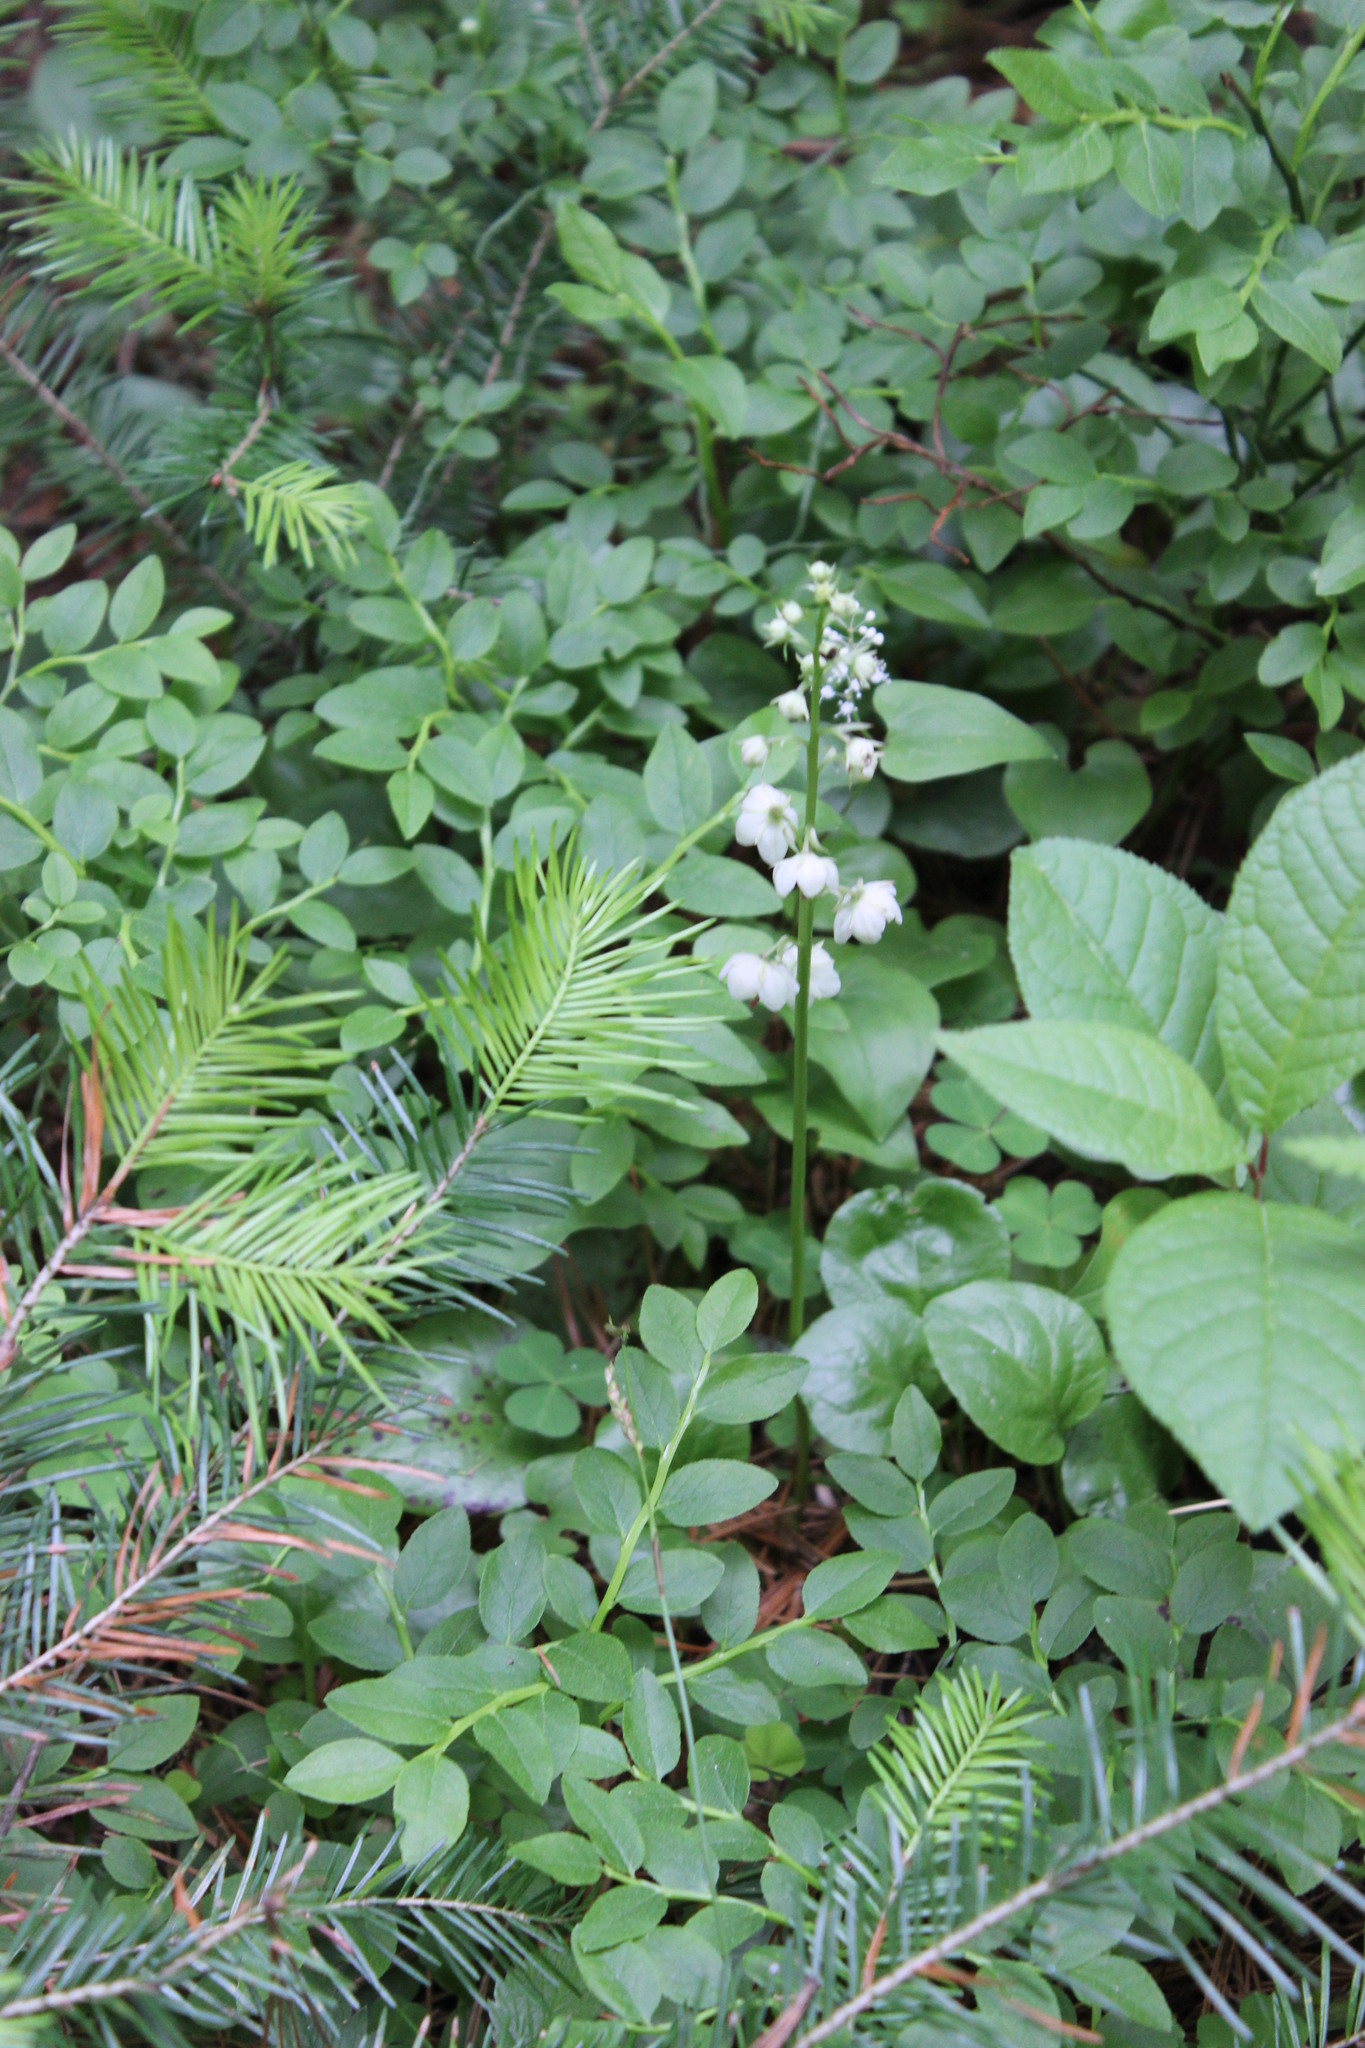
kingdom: Plantae
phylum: Tracheophyta
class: Magnoliopsida
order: Ericales
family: Ericaceae
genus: Pyrola
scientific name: Pyrola rotundifolia
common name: Round-leaved wintergreen
